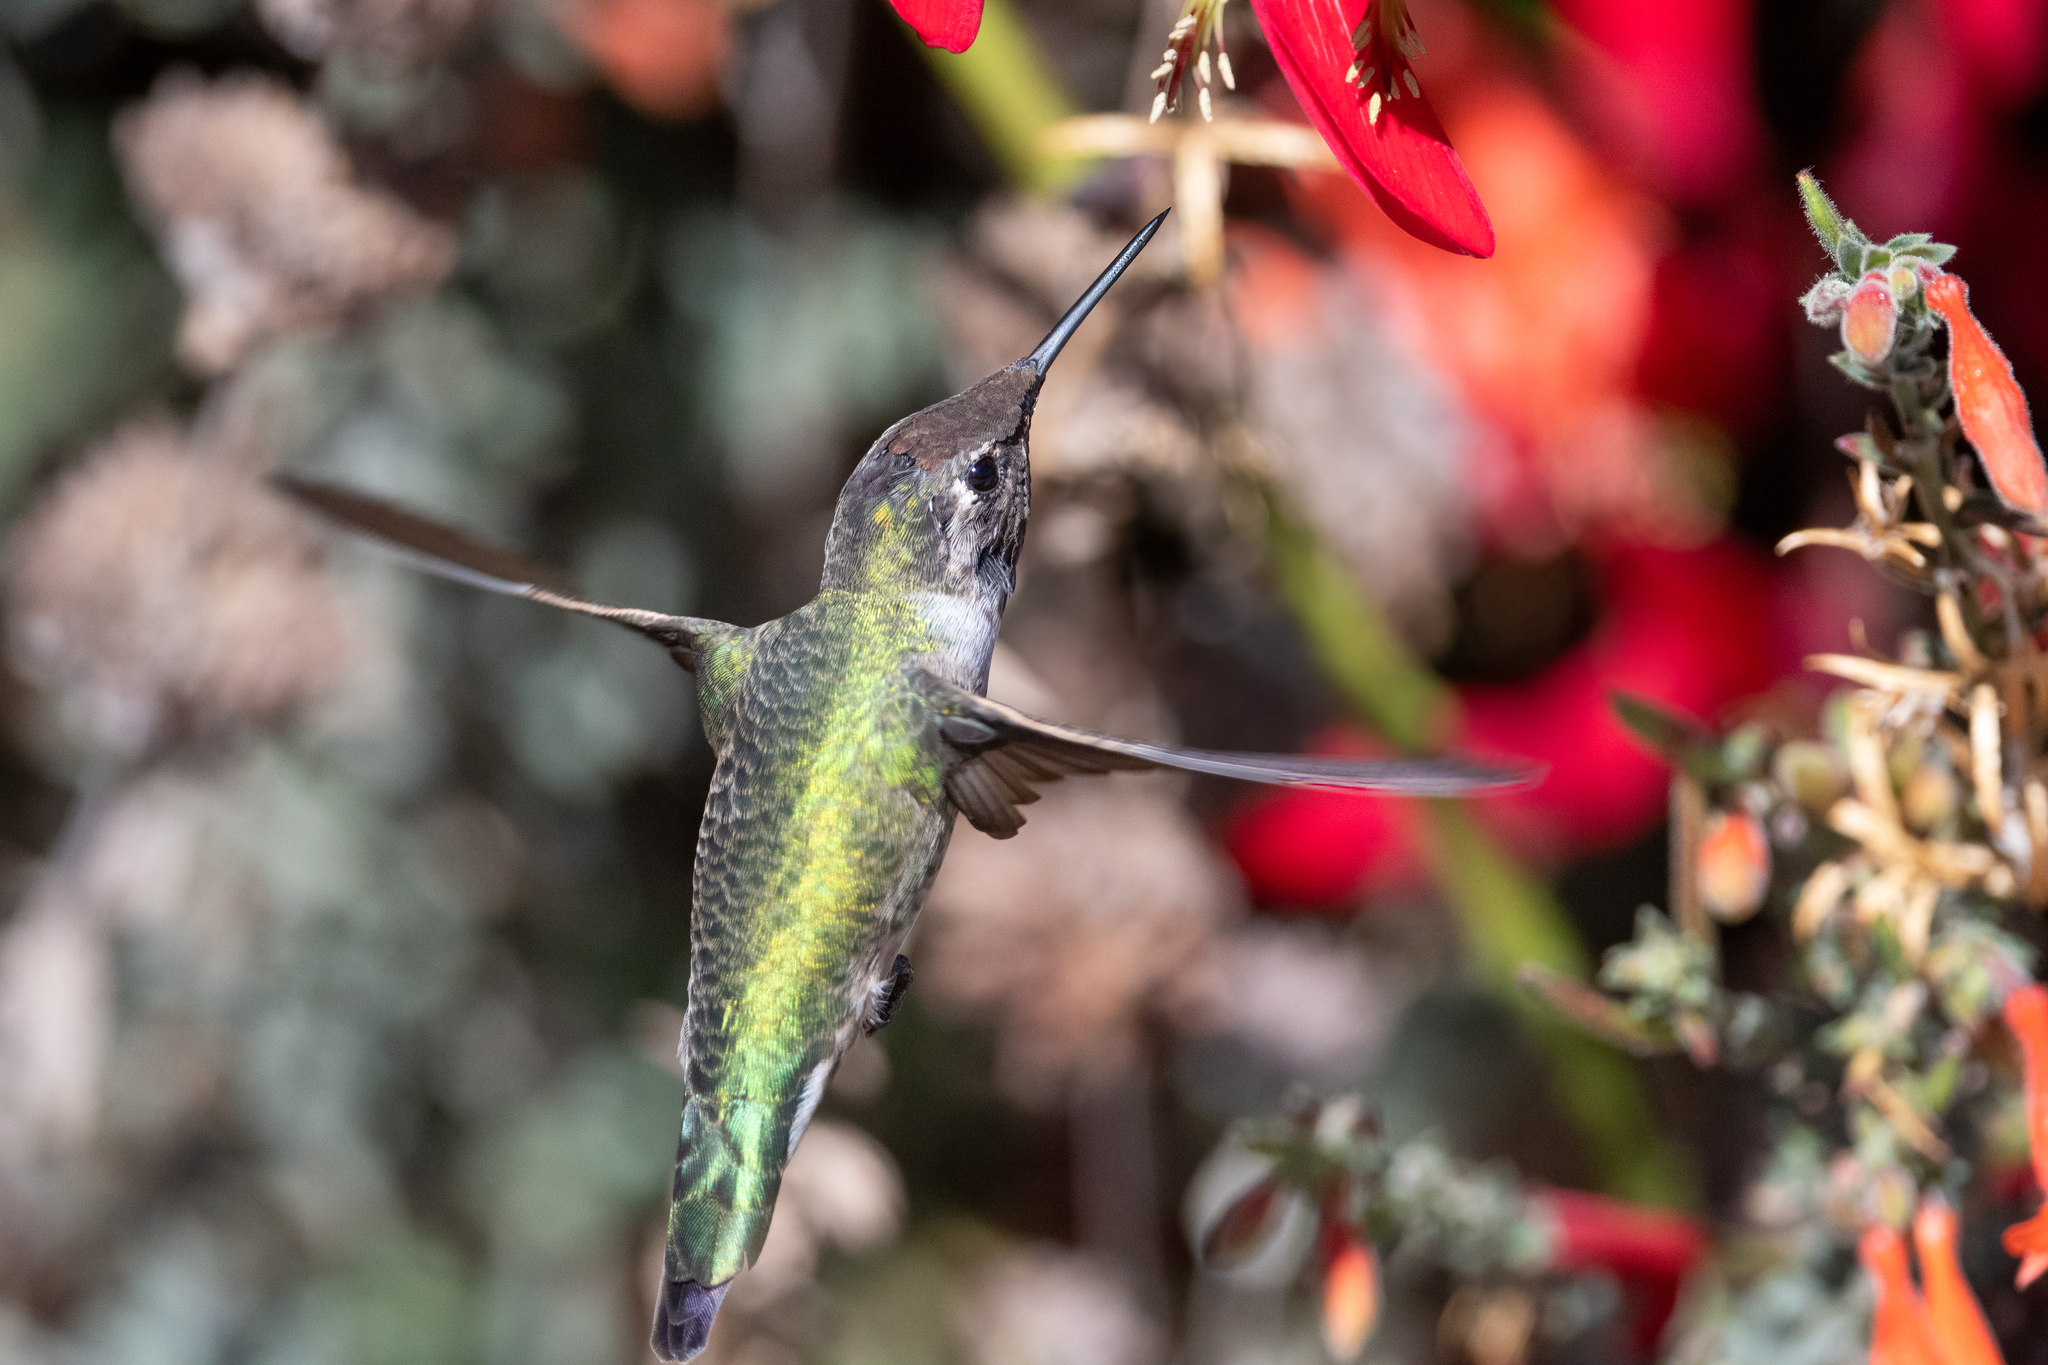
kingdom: Animalia
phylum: Chordata
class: Aves
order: Apodiformes
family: Trochilidae
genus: Calypte
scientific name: Calypte anna
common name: Anna's hummingbird
